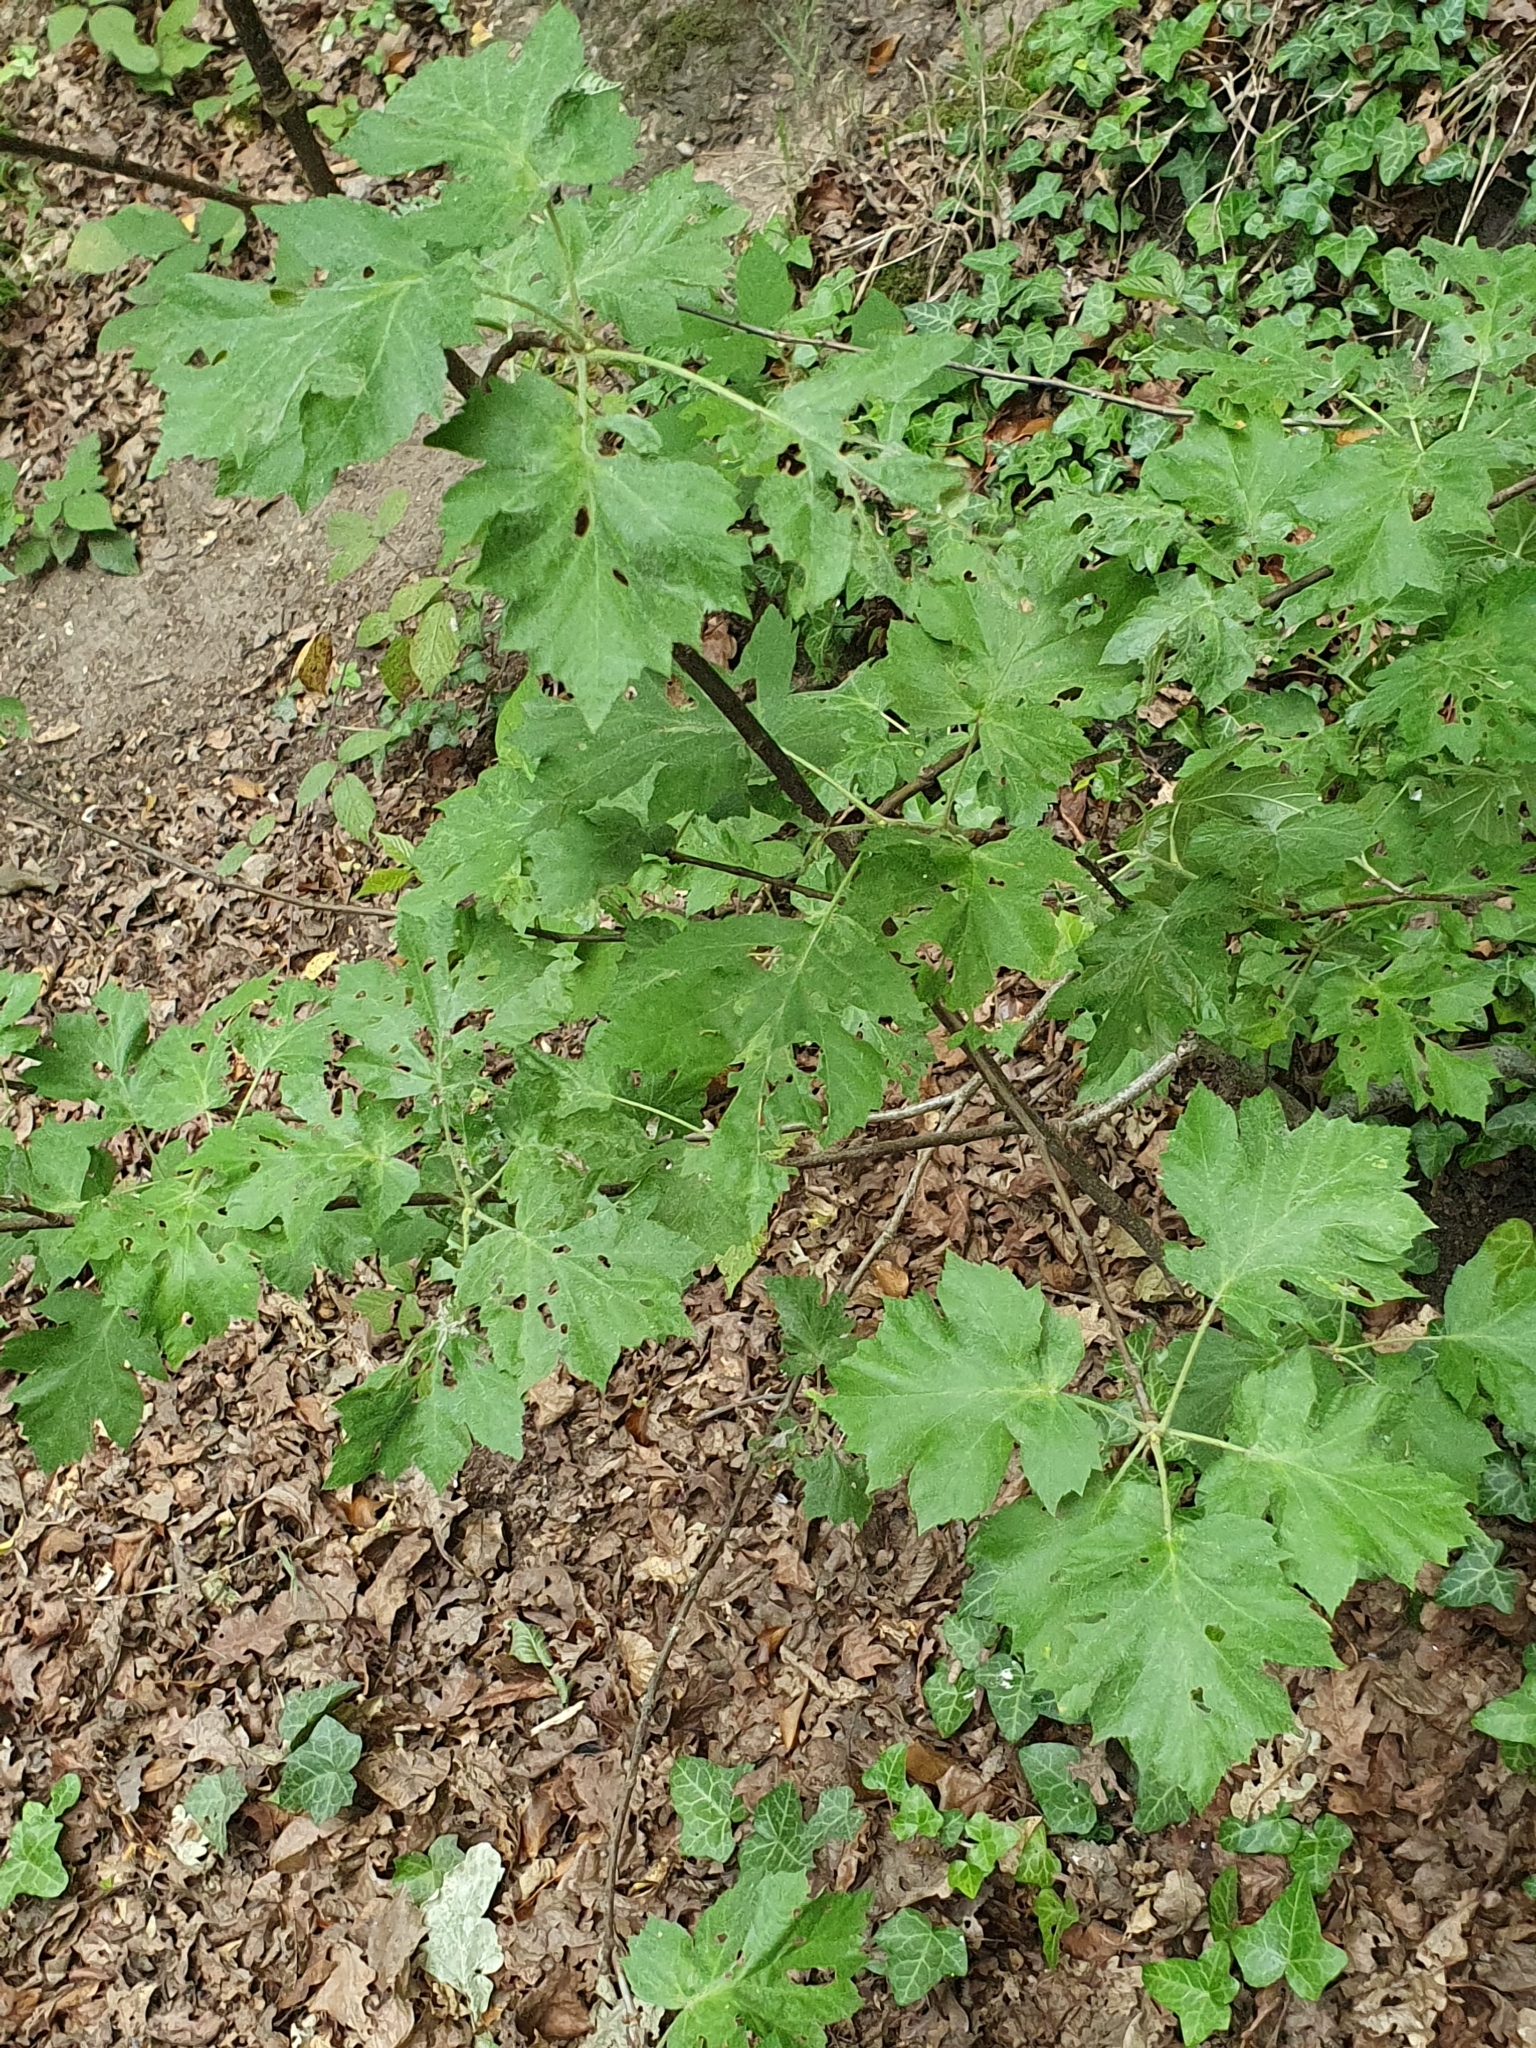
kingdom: Plantae
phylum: Tracheophyta
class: Magnoliopsida
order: Rosales
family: Rosaceae
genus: Torminalis
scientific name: Torminalis glaberrima
